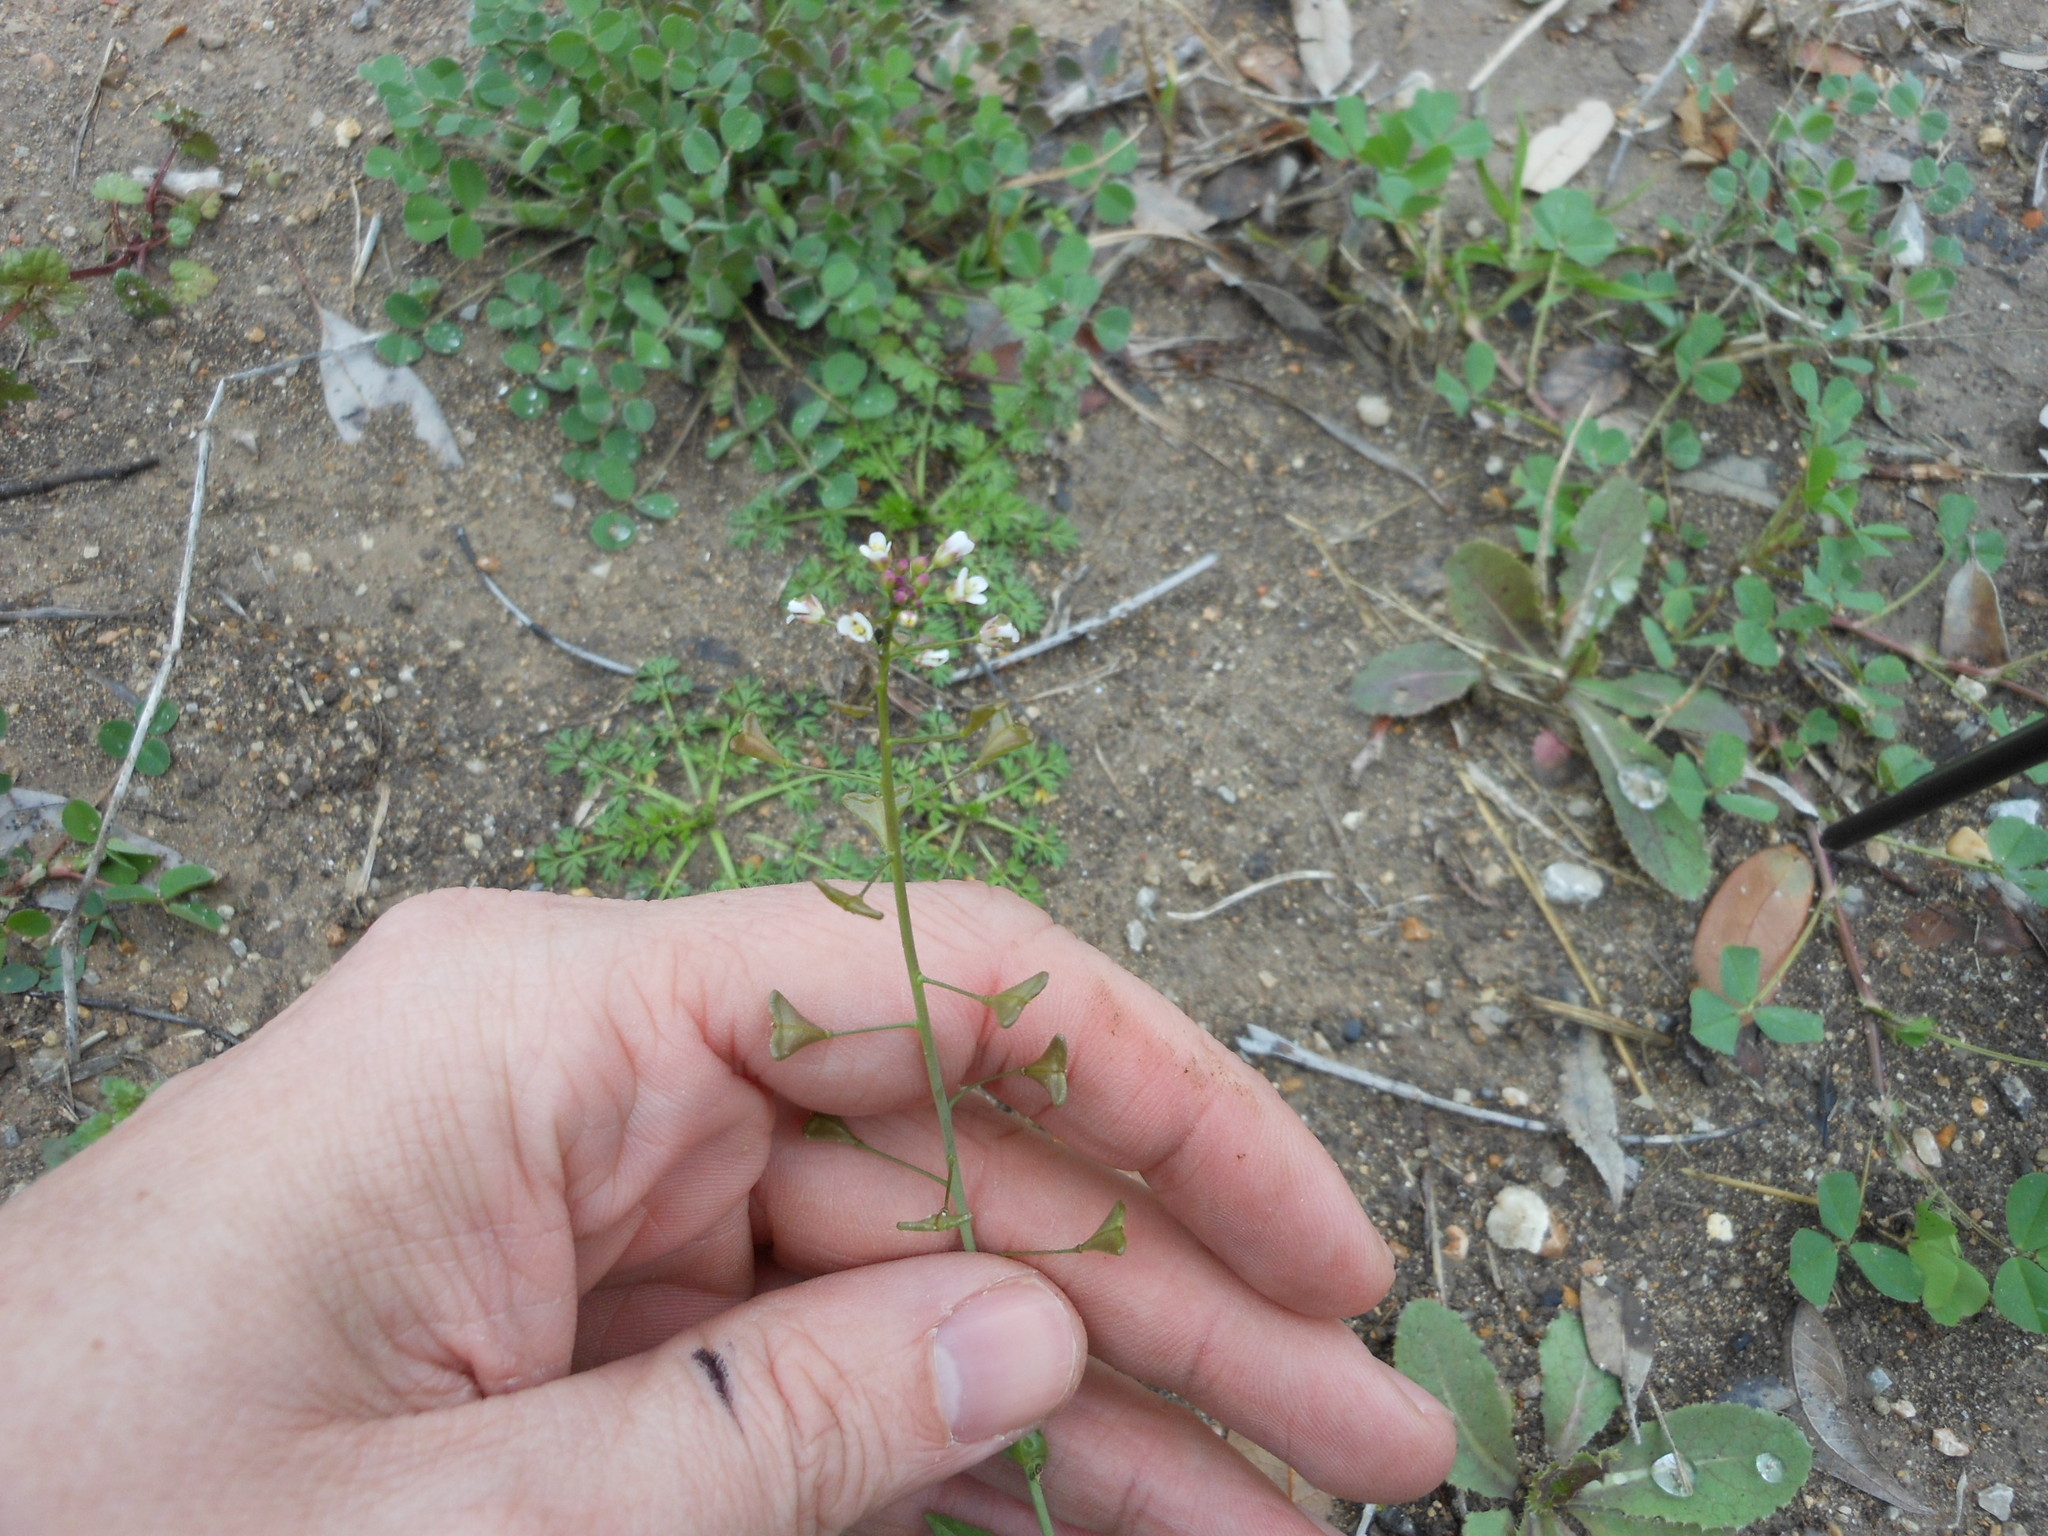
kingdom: Plantae
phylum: Tracheophyta
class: Magnoliopsida
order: Brassicales
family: Brassicaceae
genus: Capsella
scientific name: Capsella bursa-pastoris
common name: Shepherd's purse
